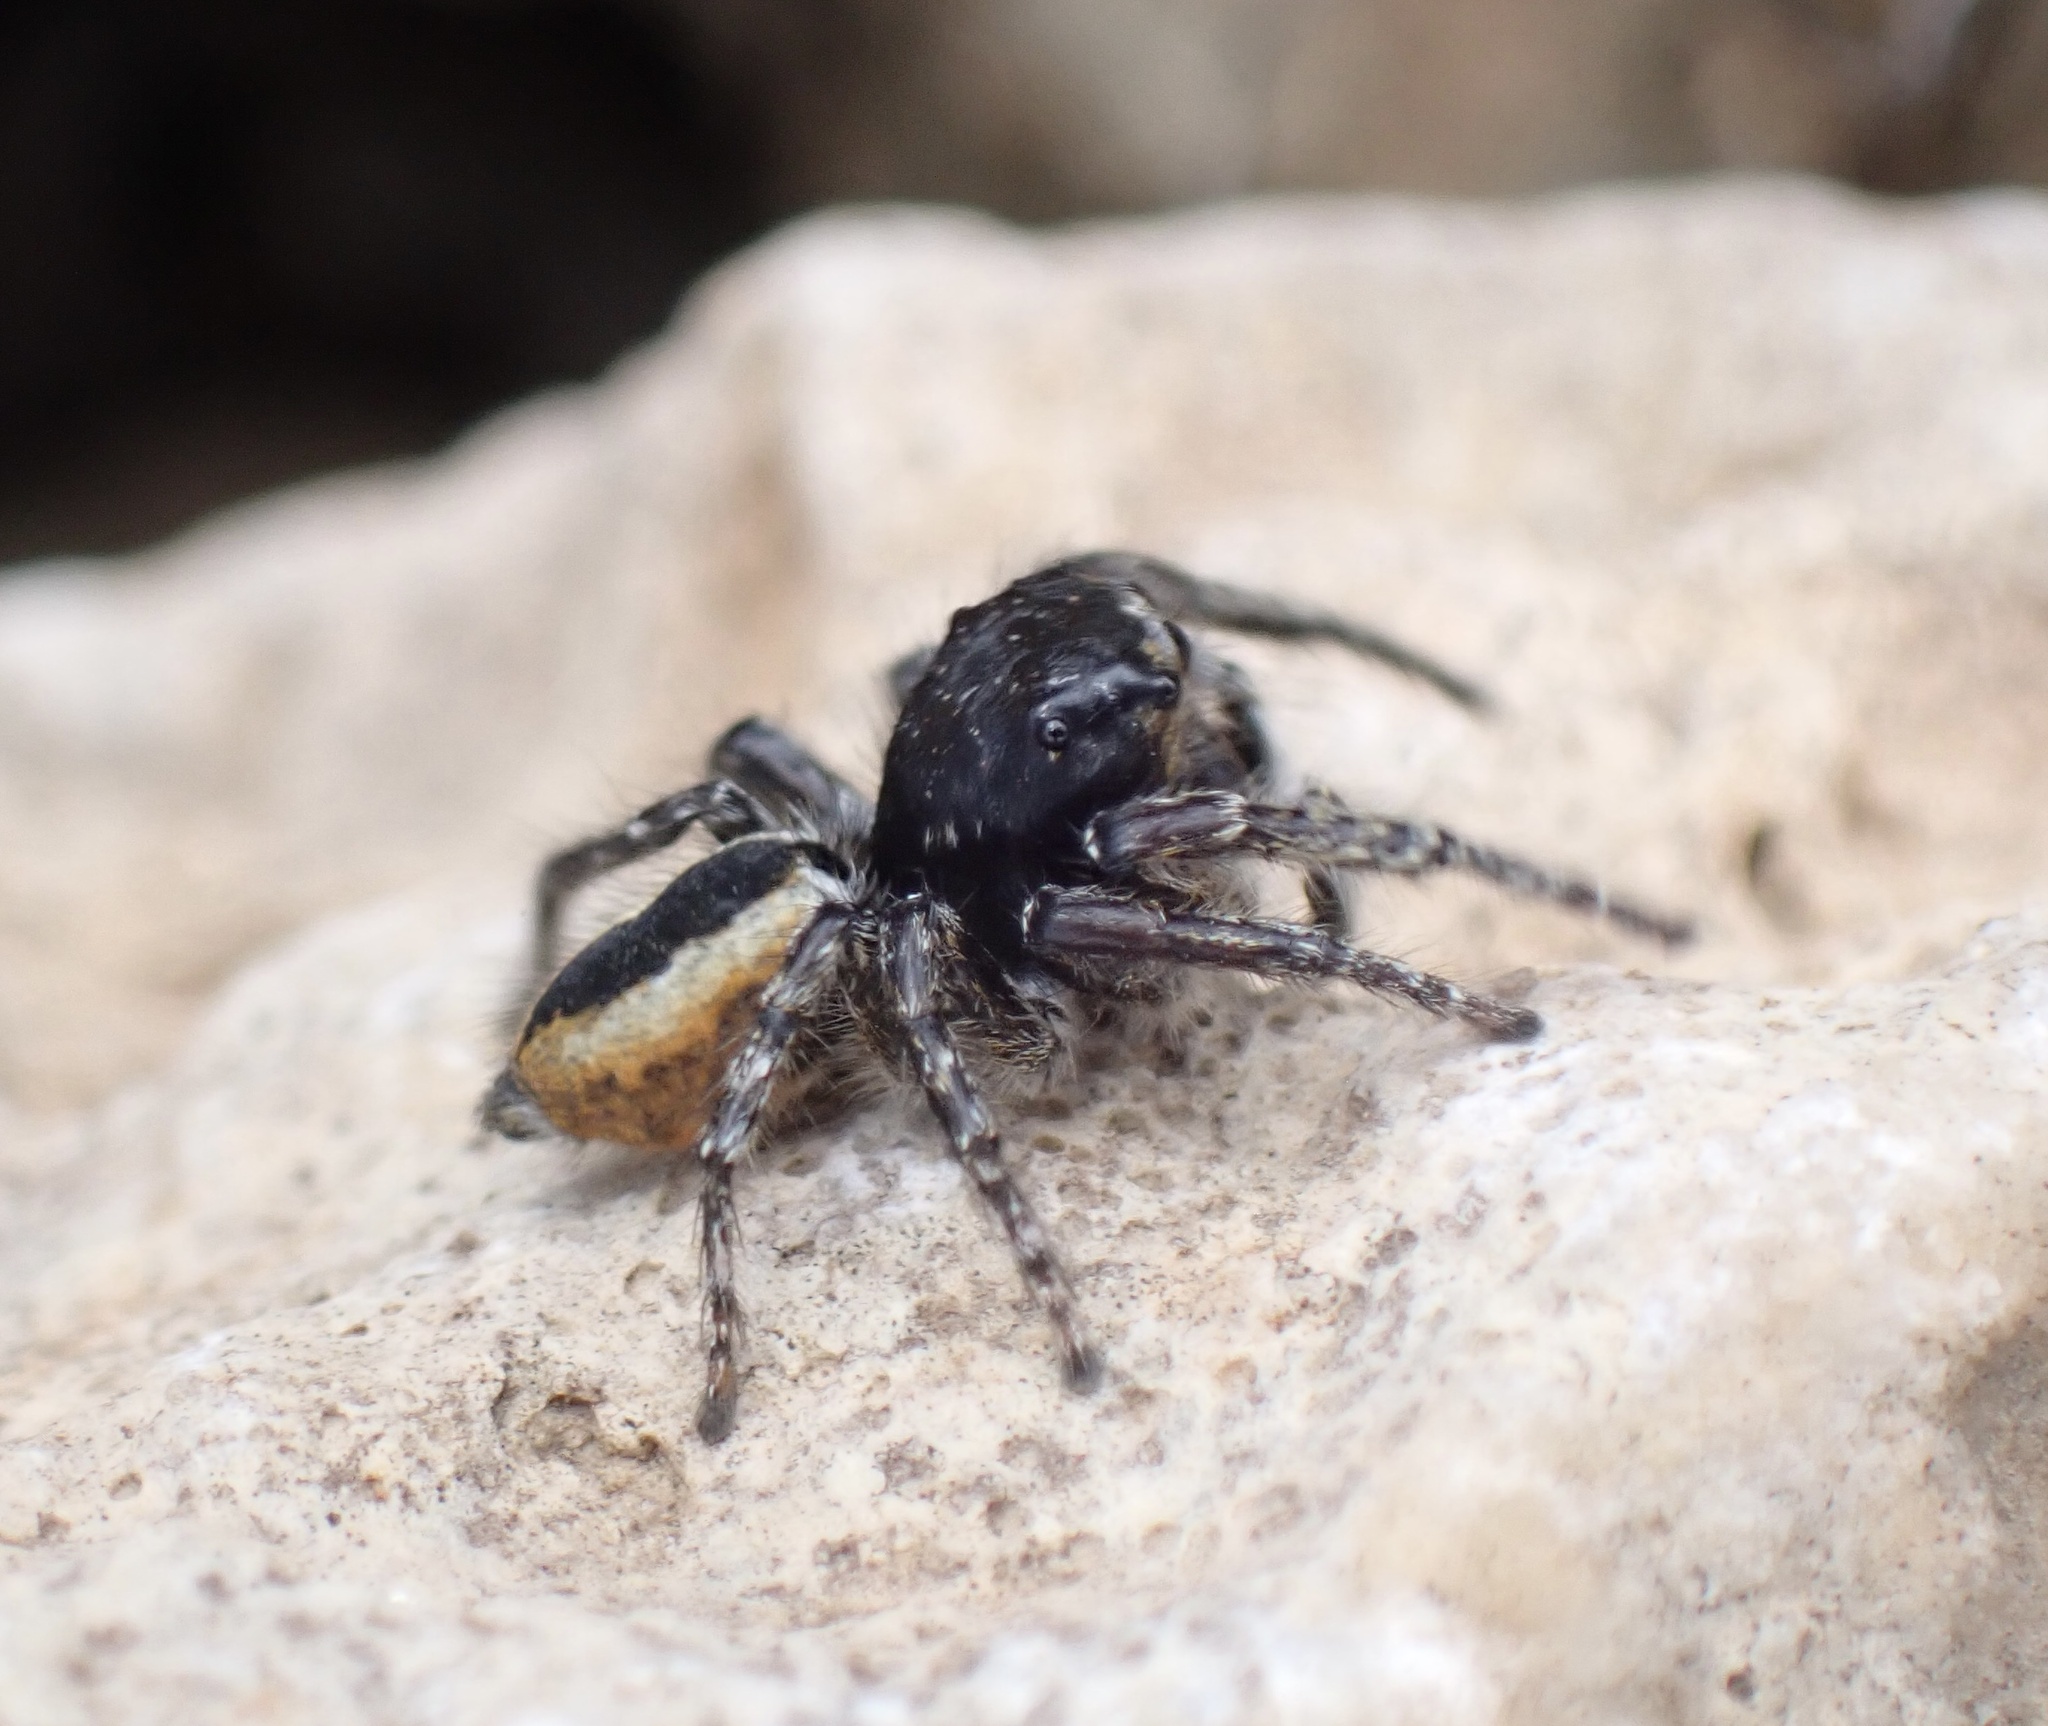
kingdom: Animalia
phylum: Arthropoda
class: Arachnida
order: Araneae
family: Salticidae
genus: Philaeus
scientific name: Philaeus chrysops
